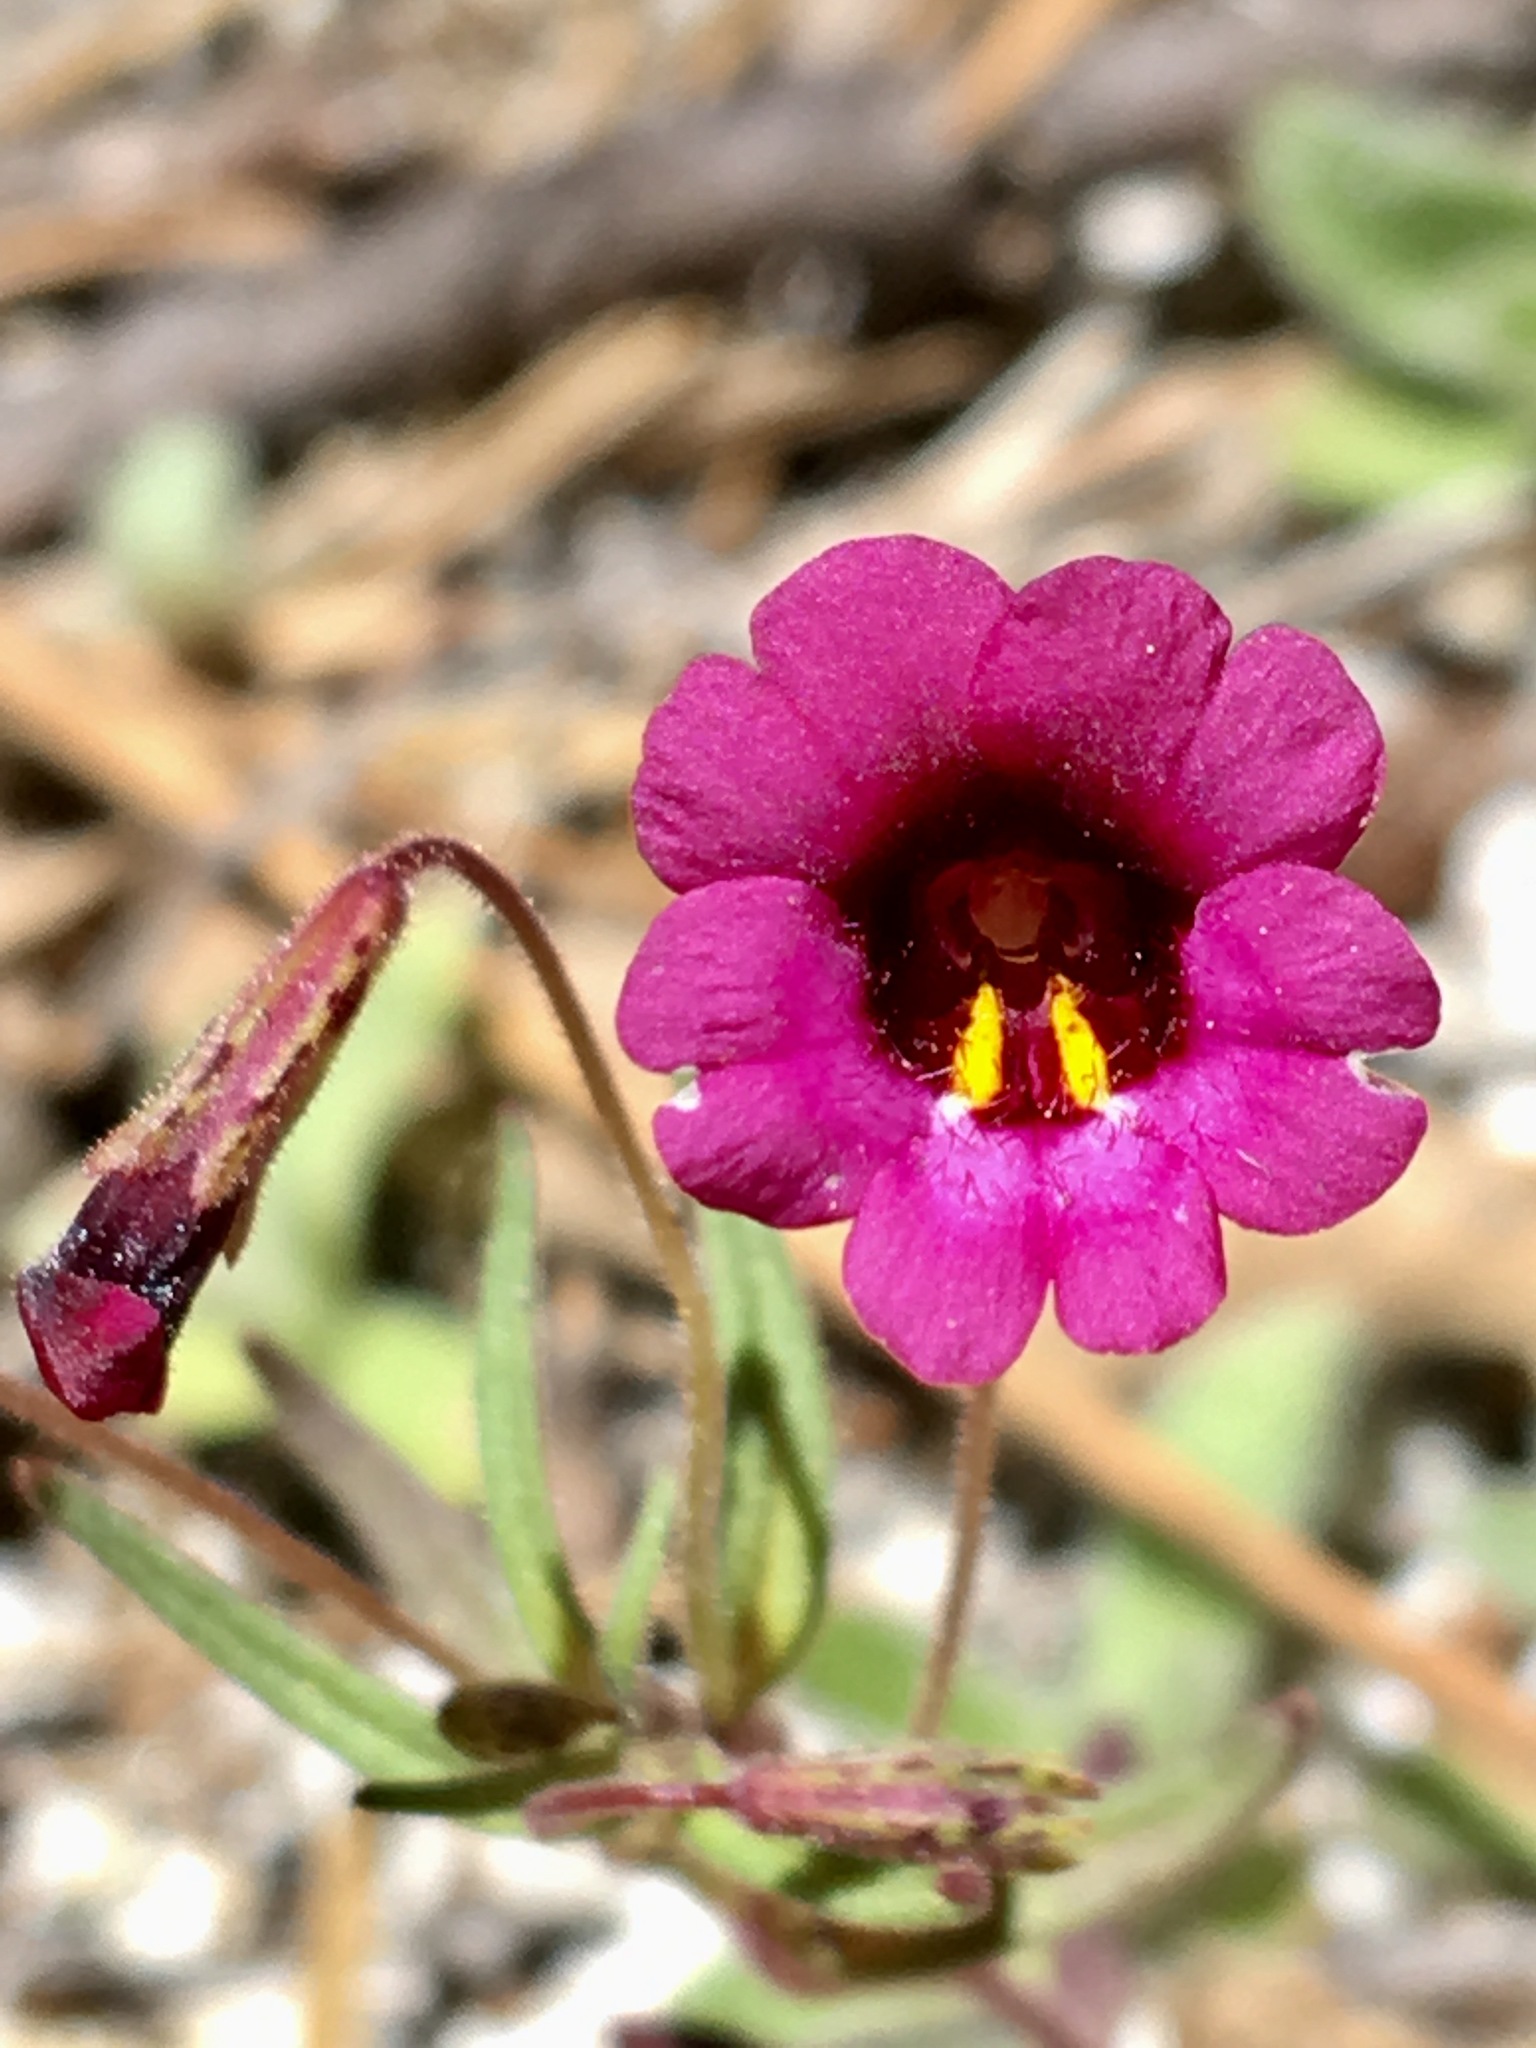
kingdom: Plantae
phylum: Tracheophyta
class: Magnoliopsida
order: Lamiales
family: Phrymaceae
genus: Erythranthe
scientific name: Erythranthe diffusa
